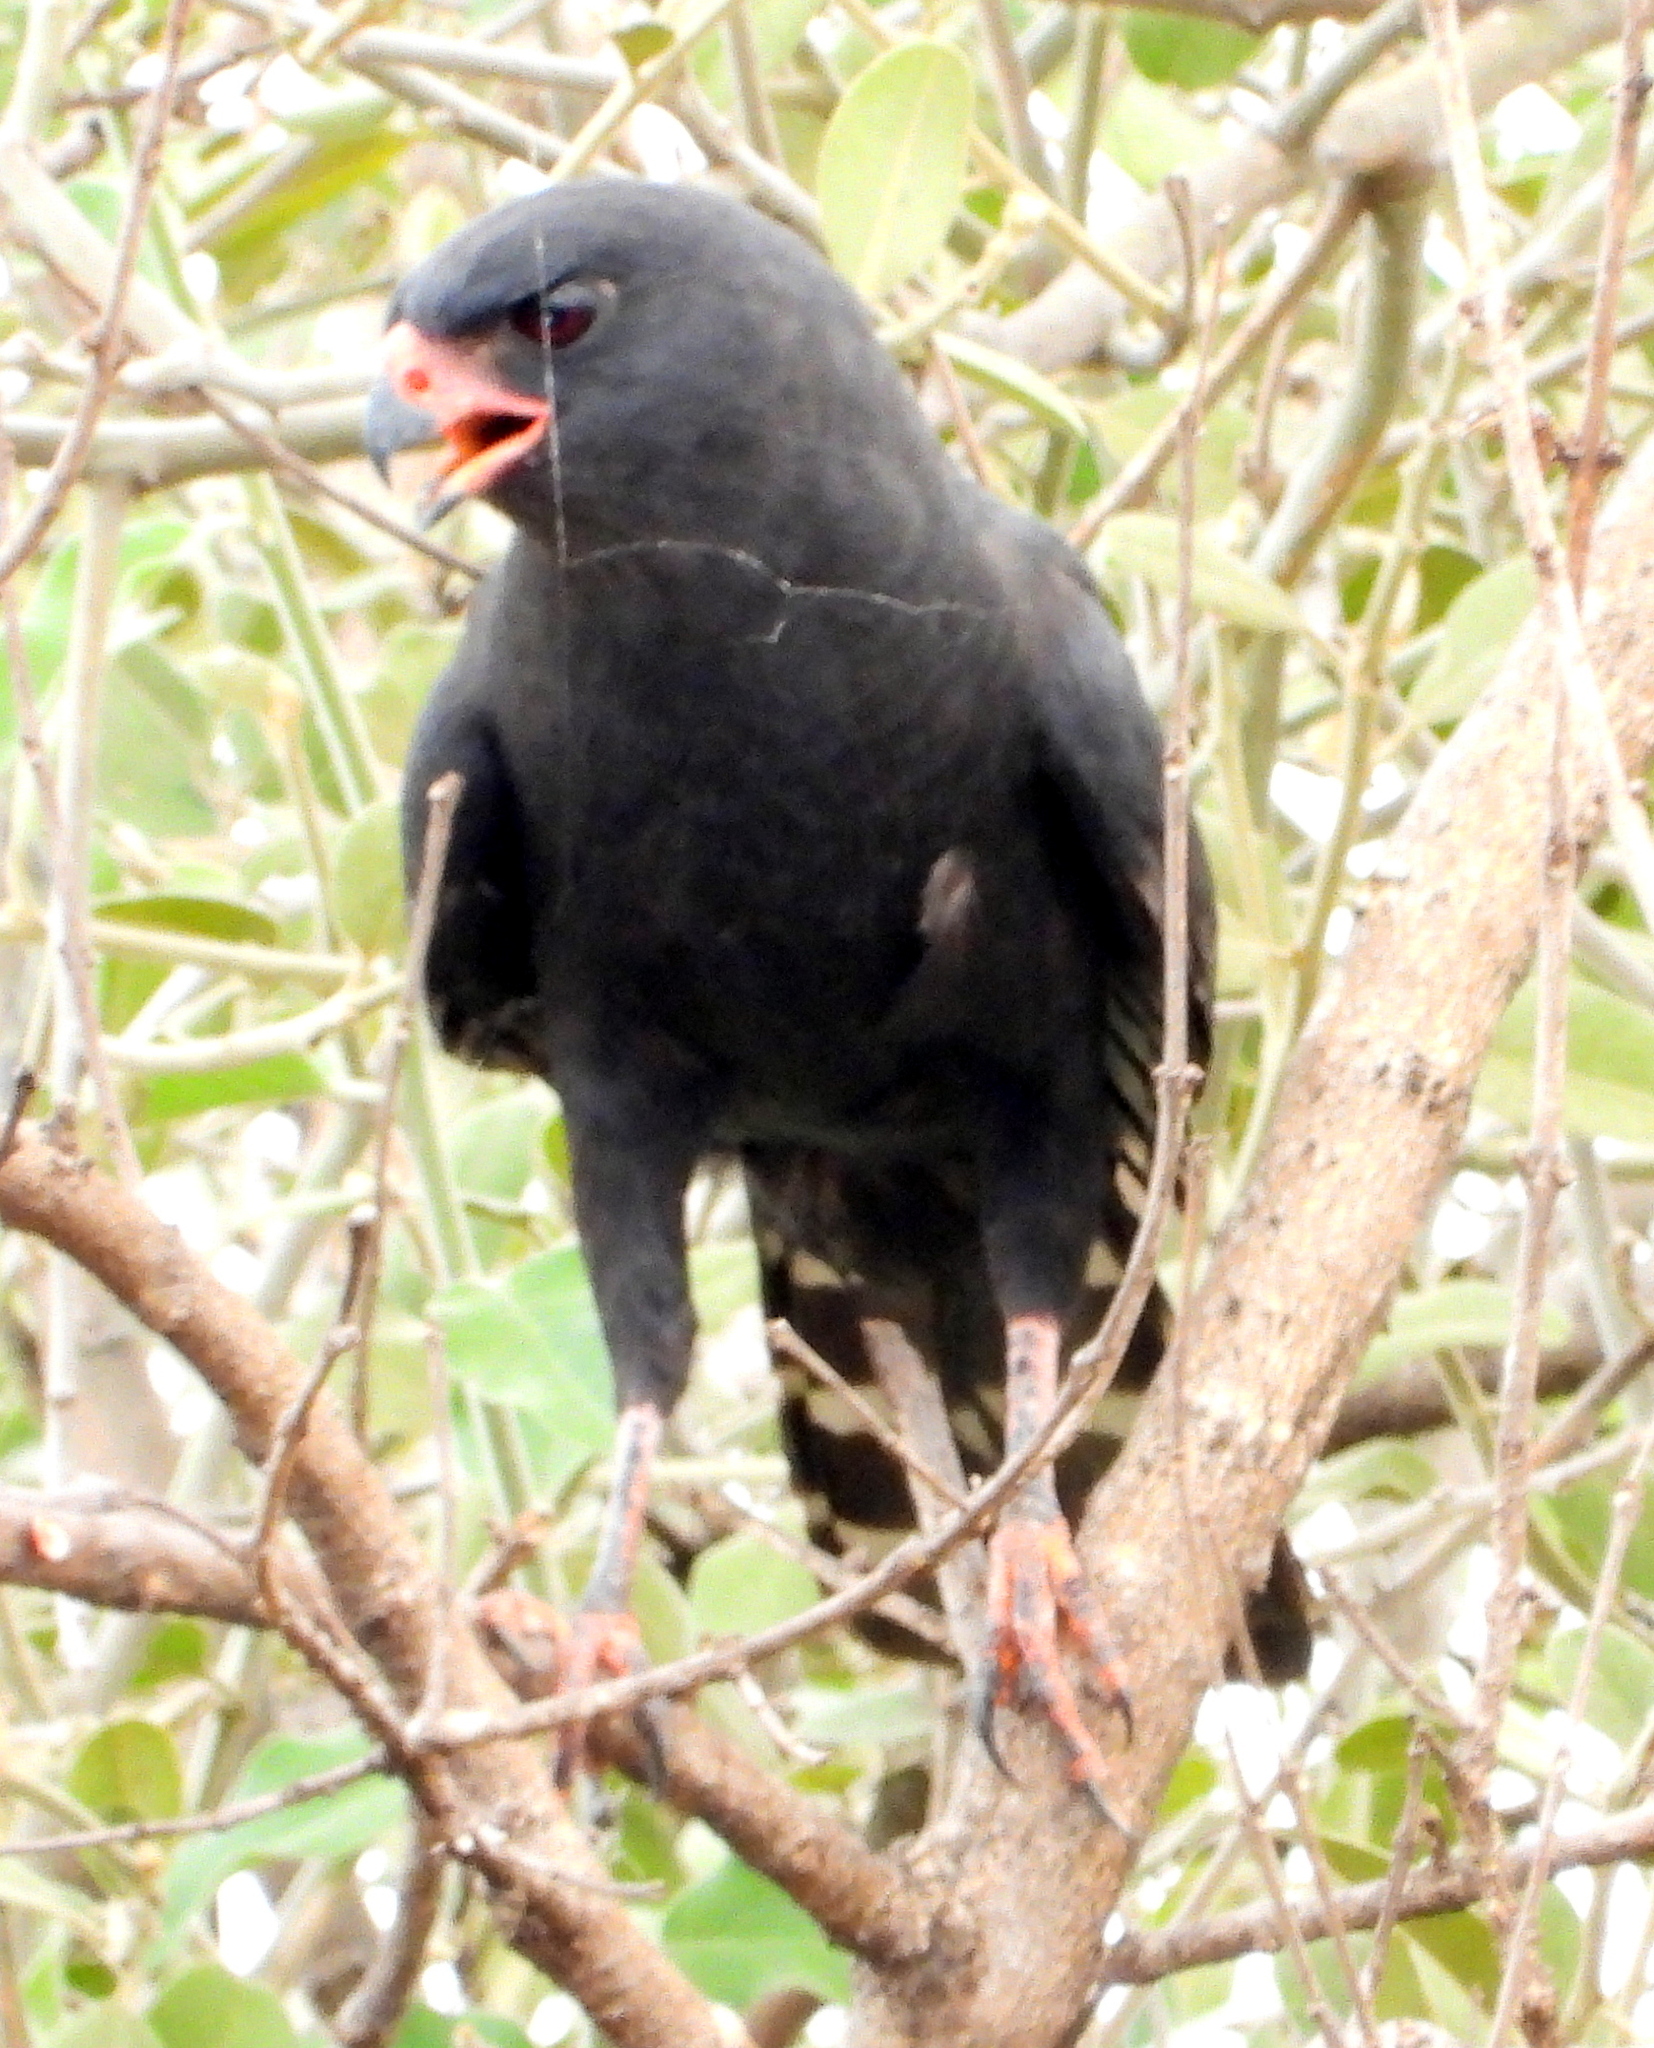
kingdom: Animalia
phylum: Chordata
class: Aves
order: Accipitriformes
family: Accipitridae
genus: Micronisus
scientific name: Micronisus gabar
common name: Gabar goshawk
